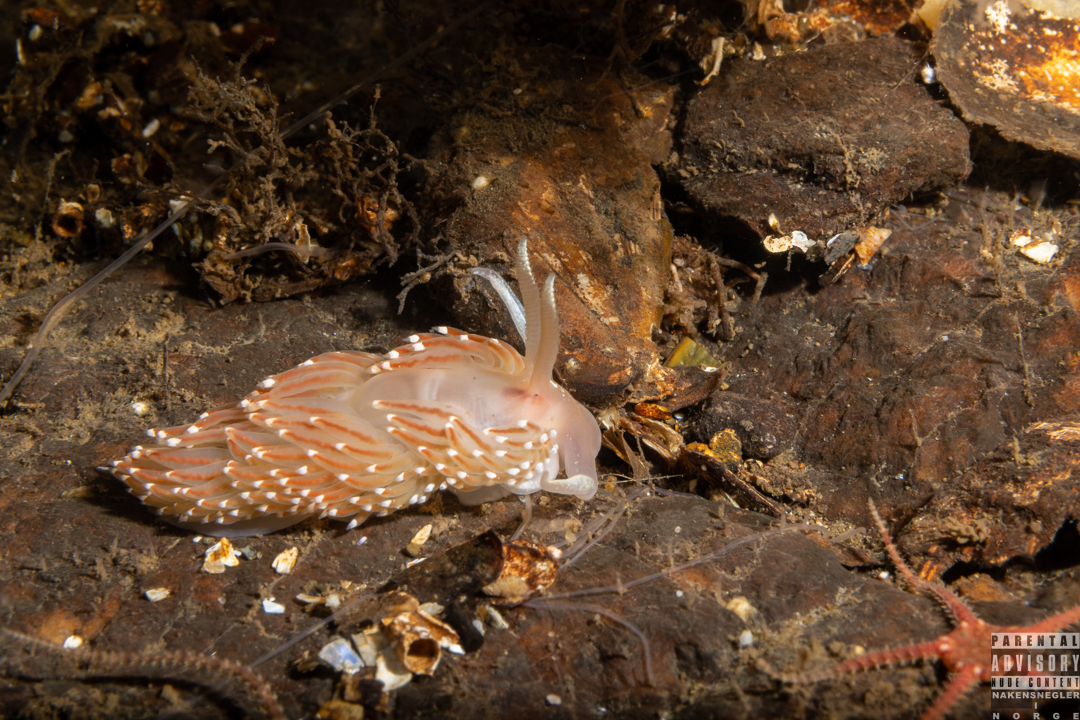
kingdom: Animalia
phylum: Mollusca
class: Gastropoda
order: Nudibranchia
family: Facelinidae
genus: Facelina
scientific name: Facelina bostoniensis
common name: Boston facelina
